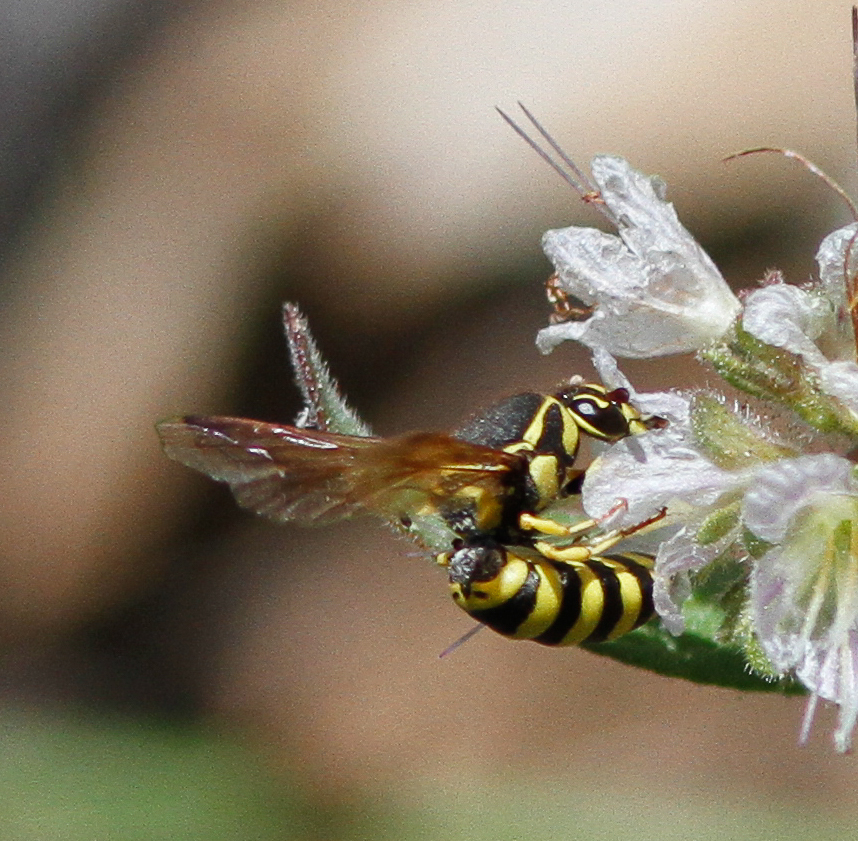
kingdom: Animalia
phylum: Arthropoda
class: Insecta
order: Hymenoptera
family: Masaridae
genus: Pseudomasaris
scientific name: Pseudomasaris edwardsi
